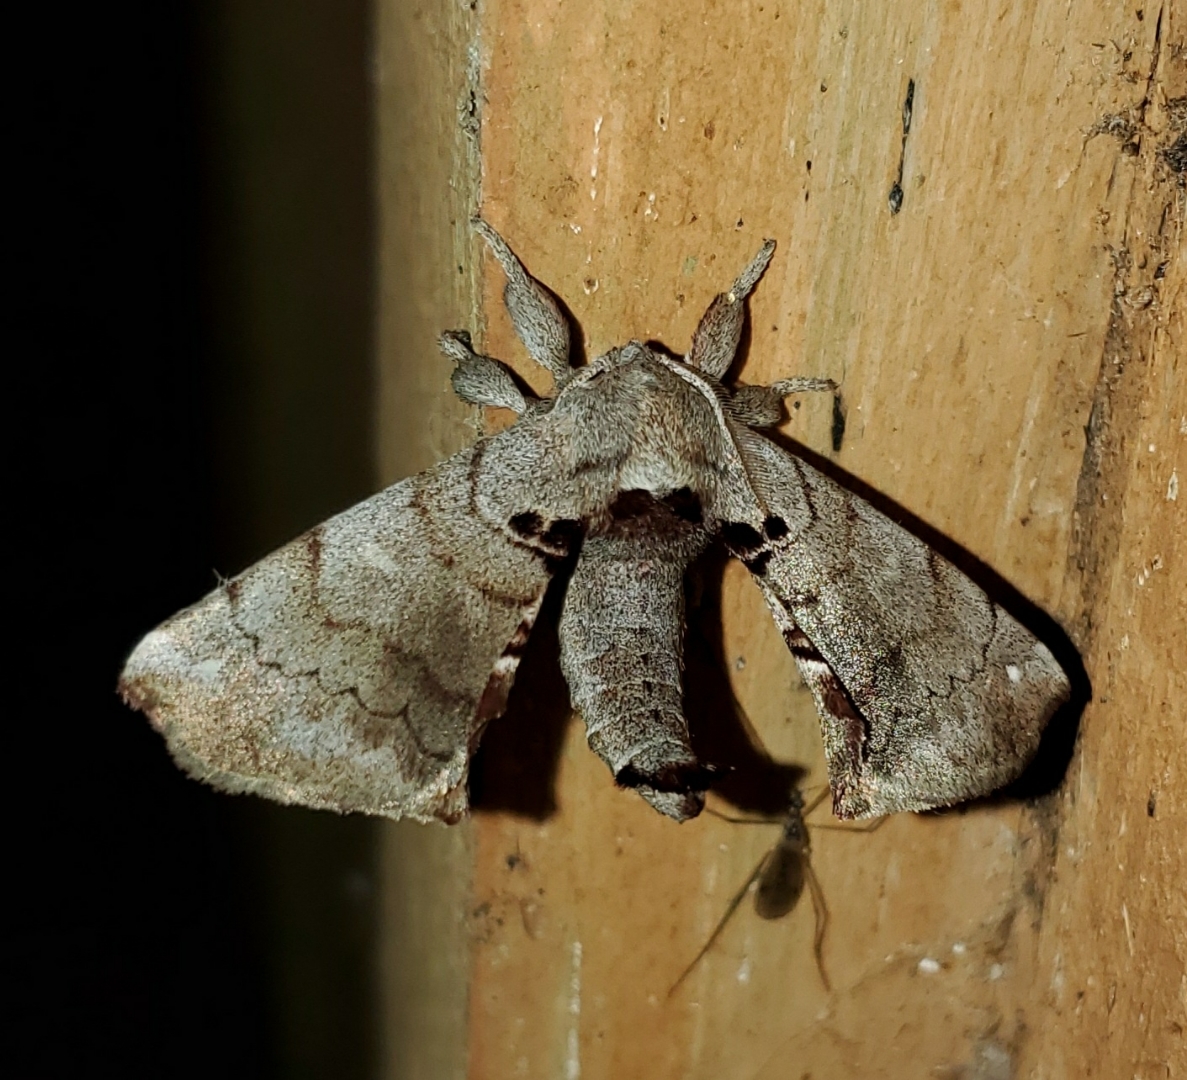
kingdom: Animalia
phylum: Arthropoda
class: Insecta
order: Lepidoptera
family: Apatelodidae
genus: Hygrochroa
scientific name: Hygrochroa Apatelodes torrefacta
